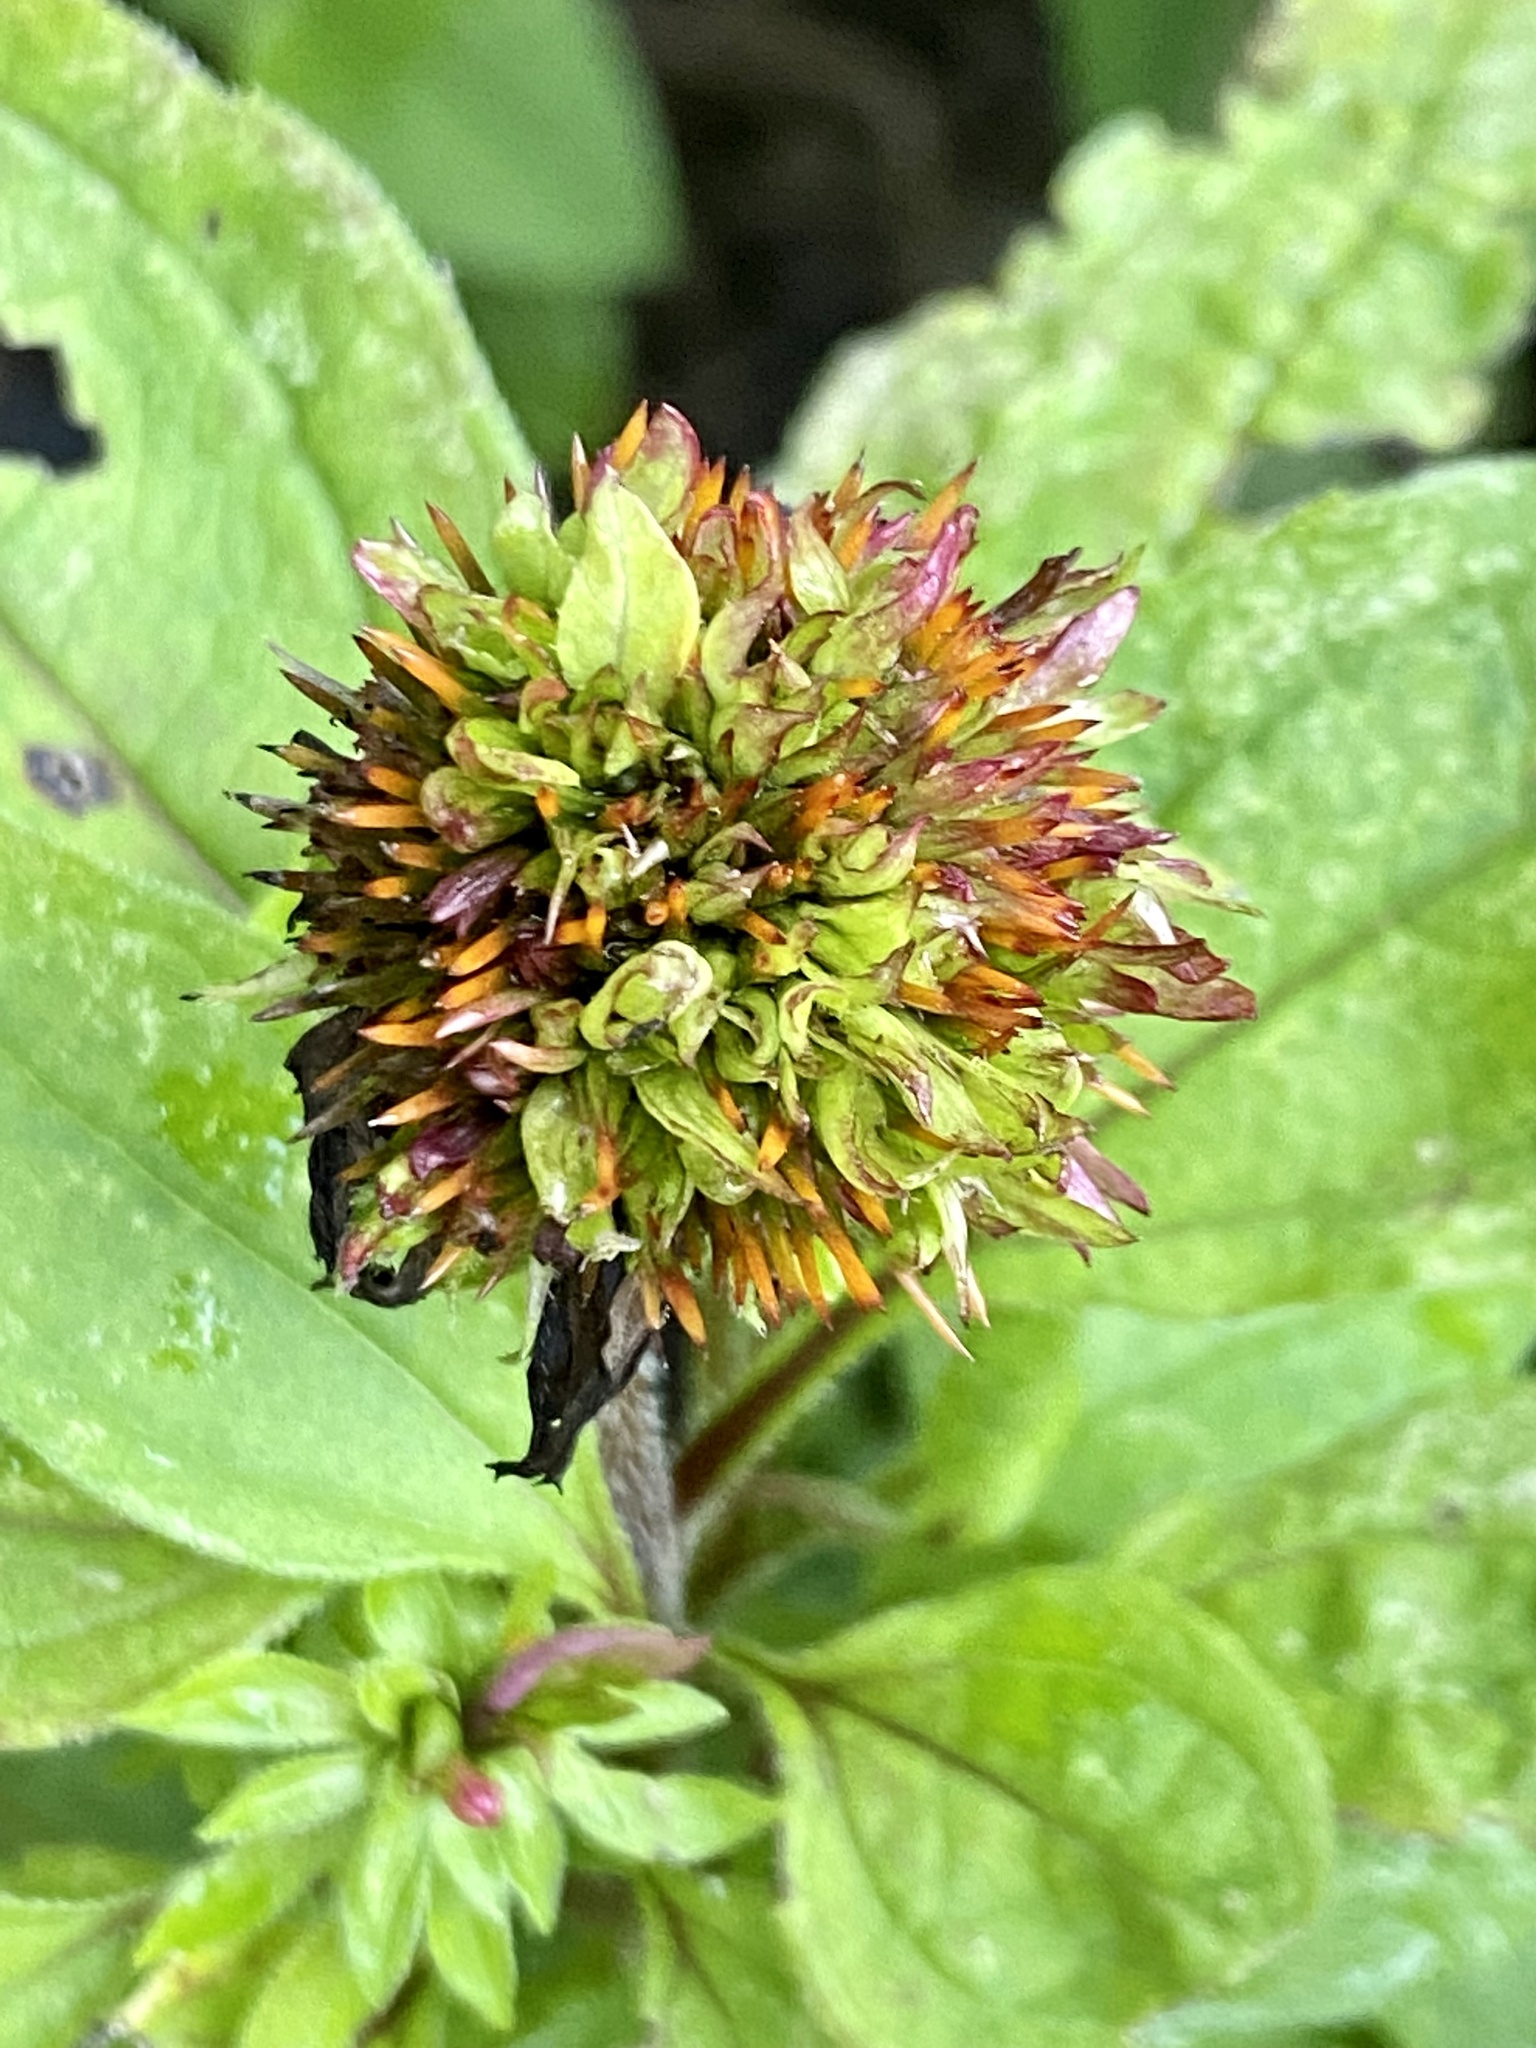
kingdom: Bacteria
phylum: Firmicutes
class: Bacilli
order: Acholeplasmatales
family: Acholeplasmataceae
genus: Phytoplasma
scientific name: Phytoplasma
